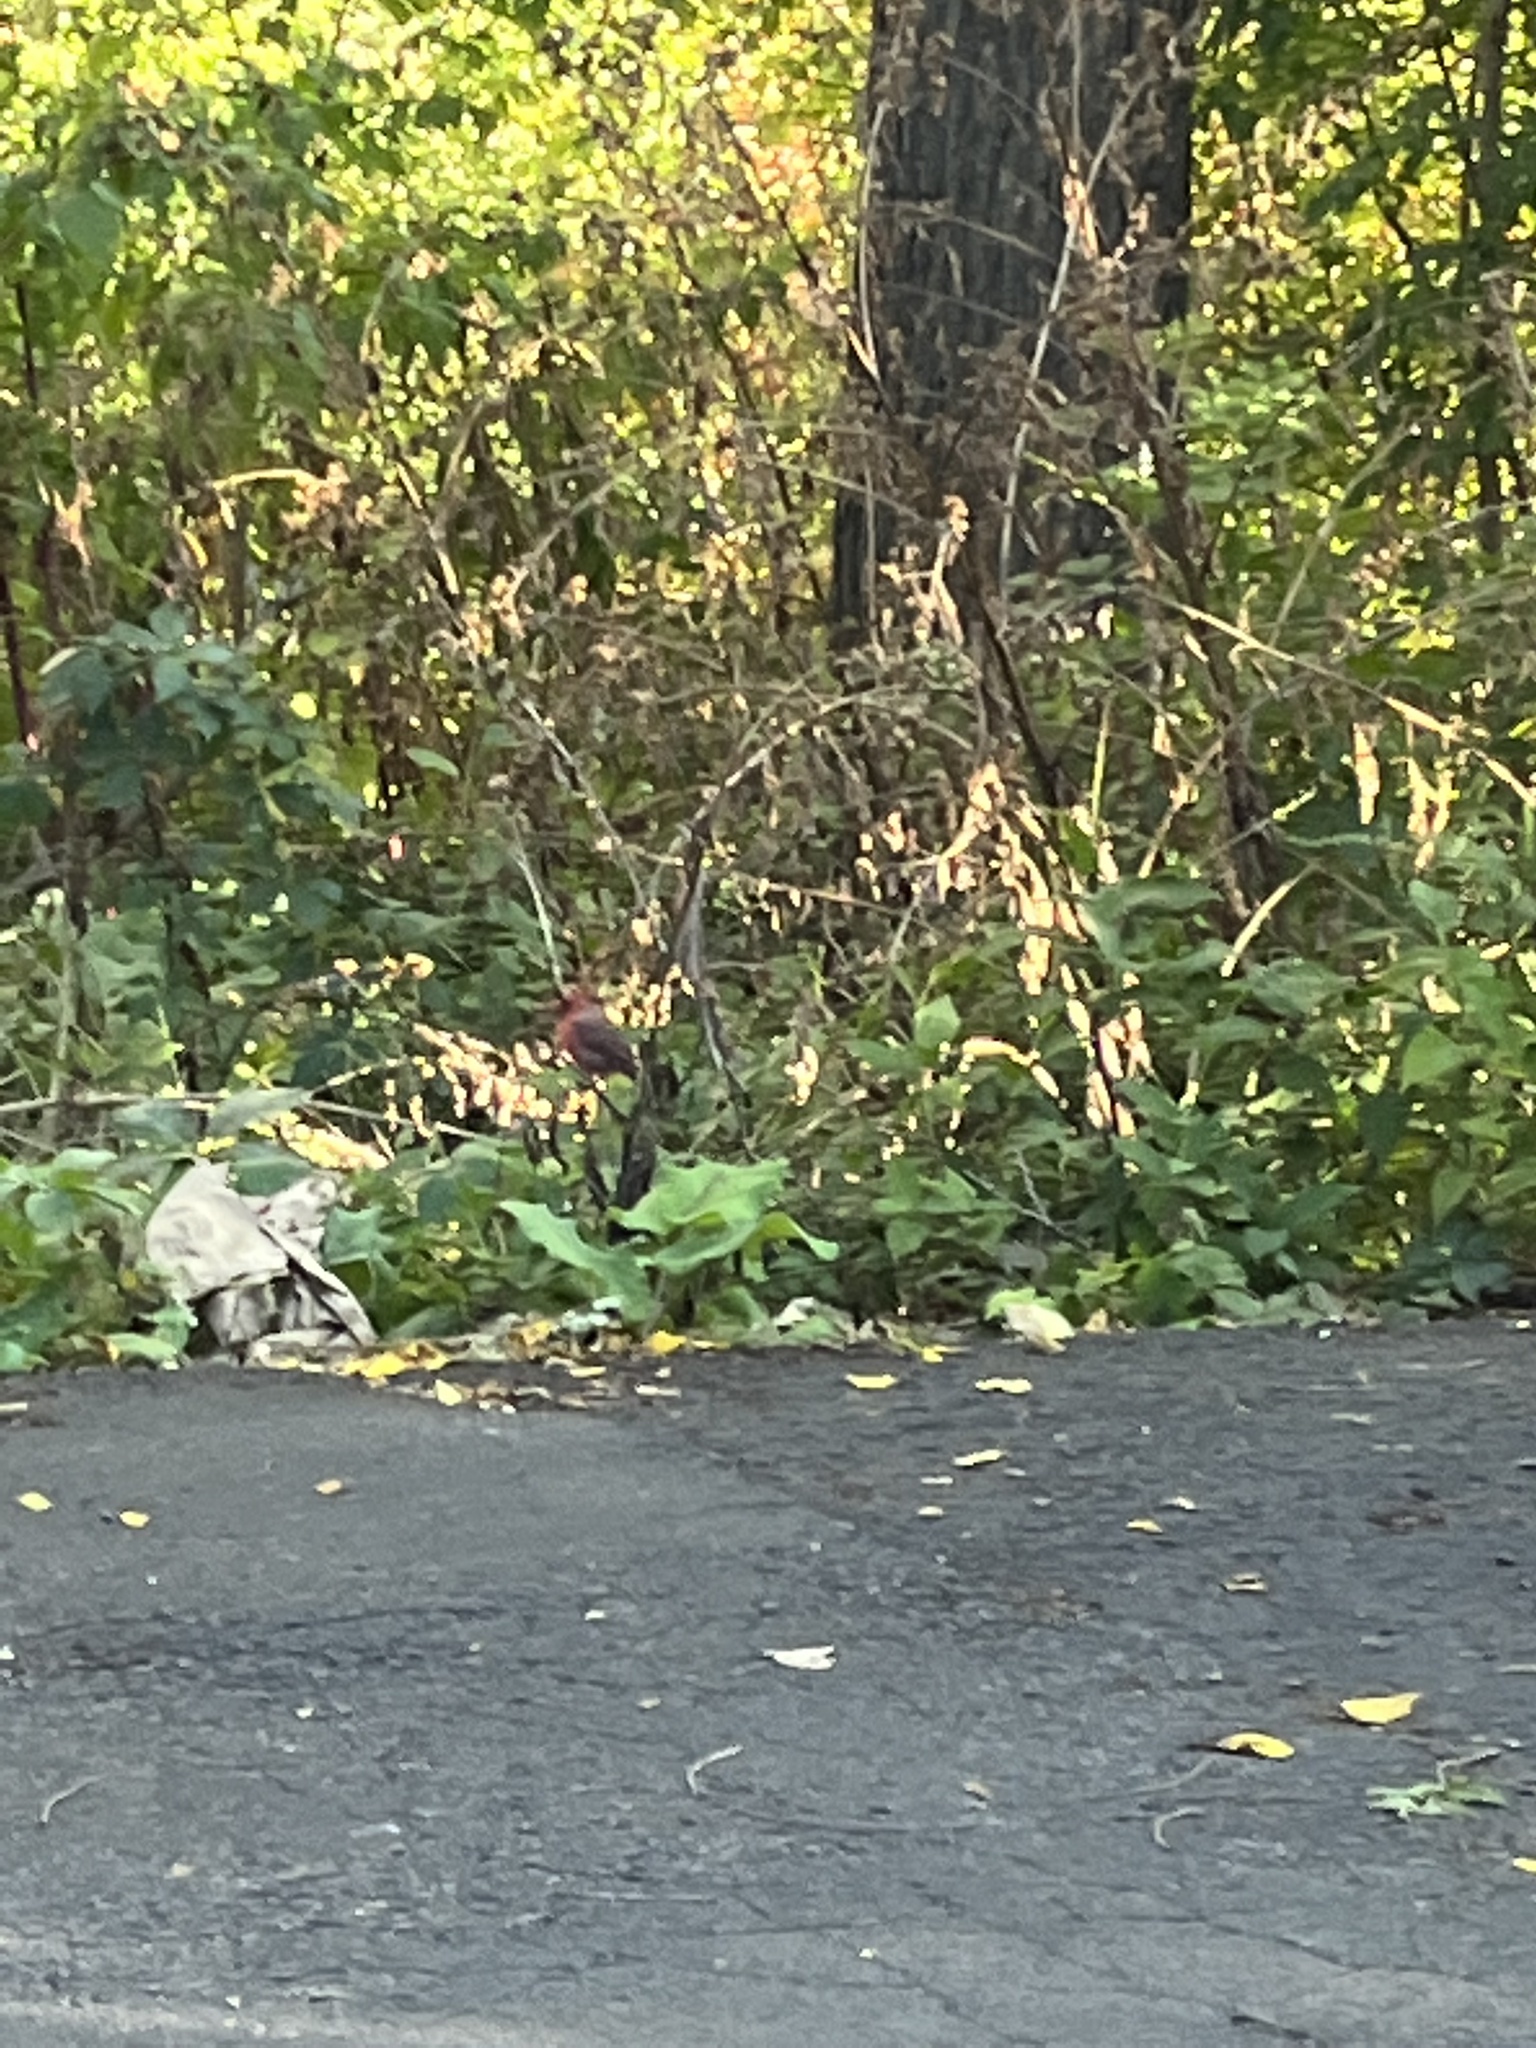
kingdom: Animalia
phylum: Chordata
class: Aves
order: Passeriformes
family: Cardinalidae
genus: Cardinalis
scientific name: Cardinalis cardinalis
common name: Northern cardinal
